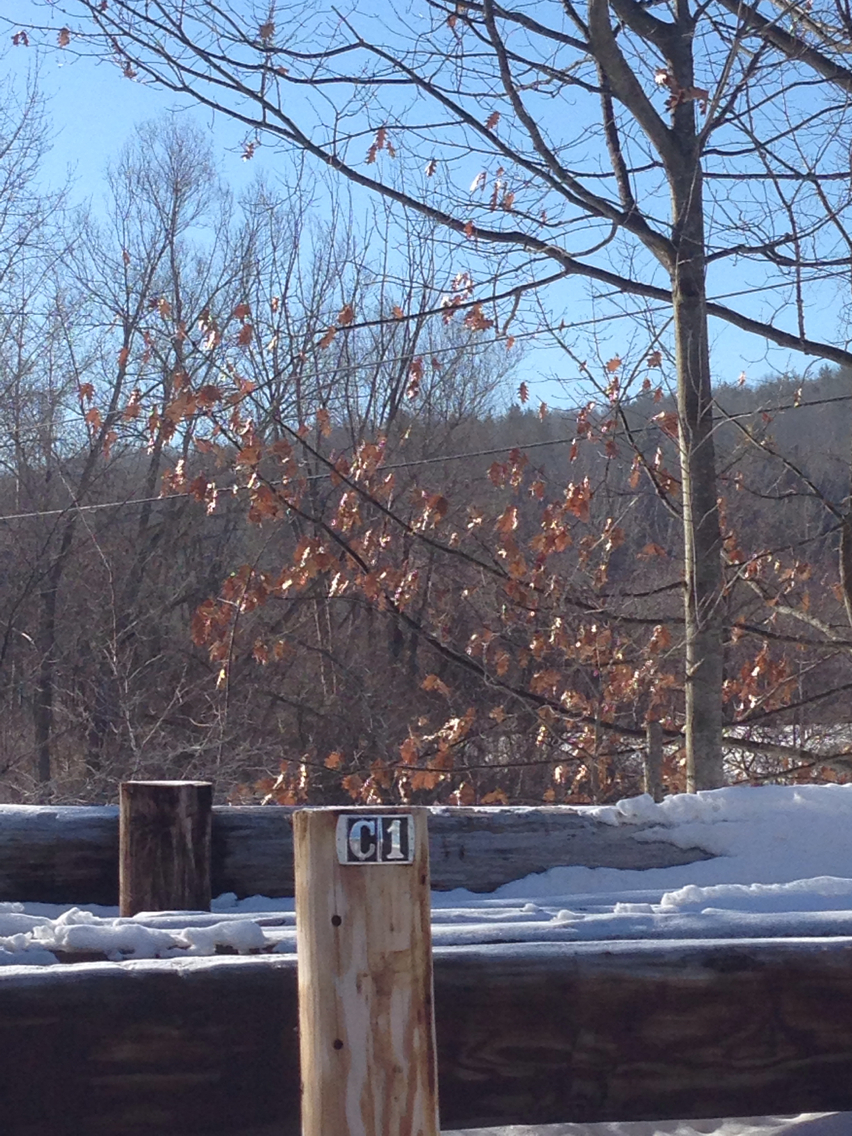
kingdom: Plantae
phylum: Tracheophyta
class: Magnoliopsida
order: Fagales
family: Fagaceae
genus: Quercus
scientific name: Quercus rubra
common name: Red oak
